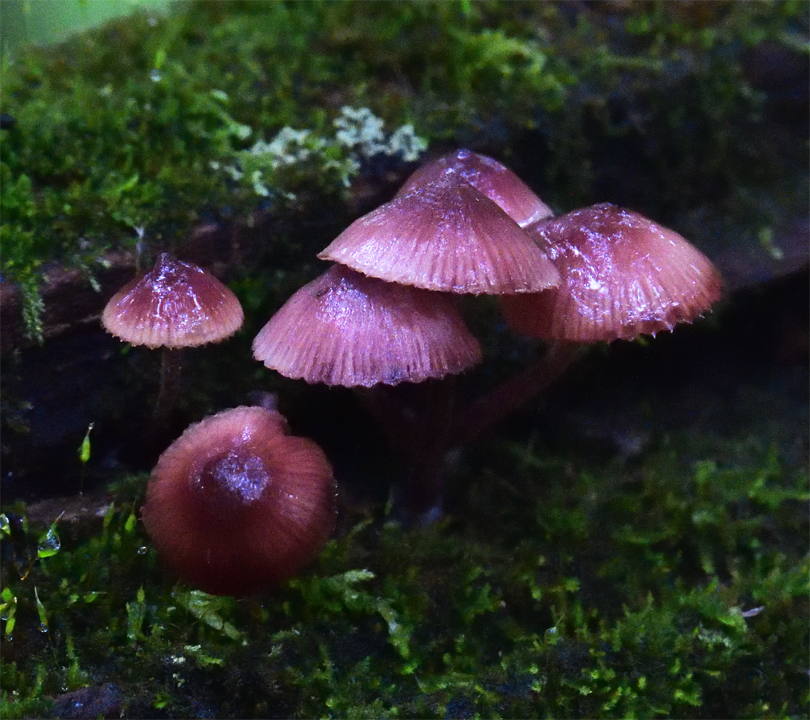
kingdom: Fungi
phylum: Basidiomycota
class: Agaricomycetes
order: Agaricales
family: Mycenaceae
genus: Mycena
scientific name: Mycena haematopus
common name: Burgundydrop bonnet
